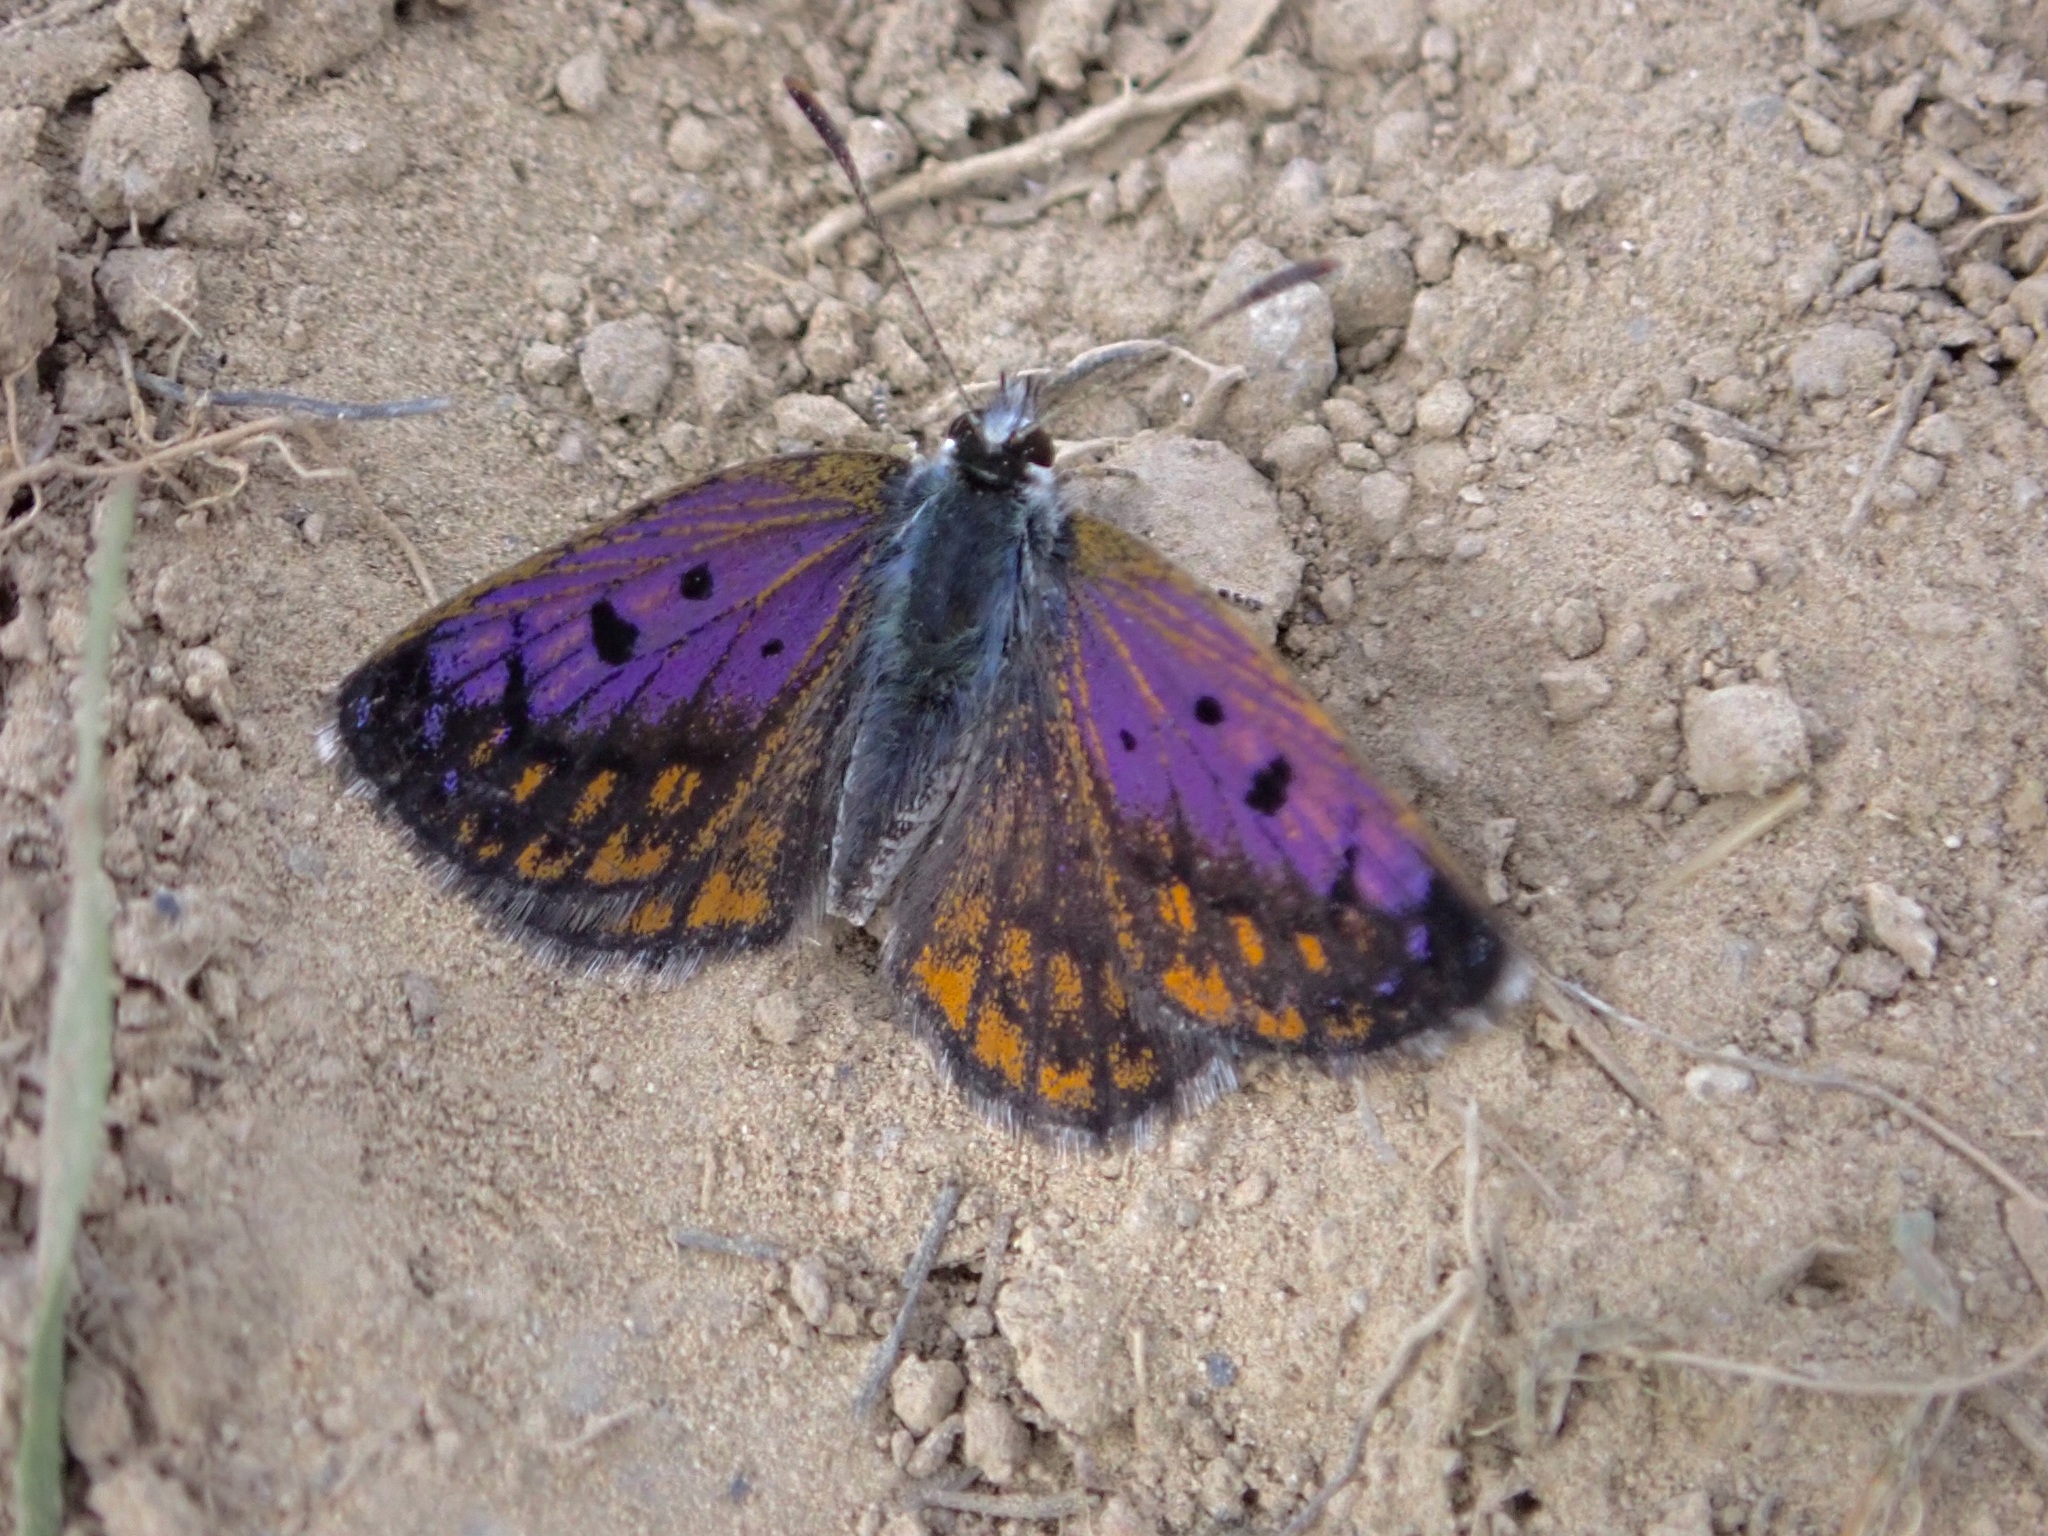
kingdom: Animalia
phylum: Arthropoda
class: Insecta
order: Lepidoptera
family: Lycaenidae
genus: Lycaena
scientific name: Lycaena tama
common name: Canterbury alpine boulder copper
